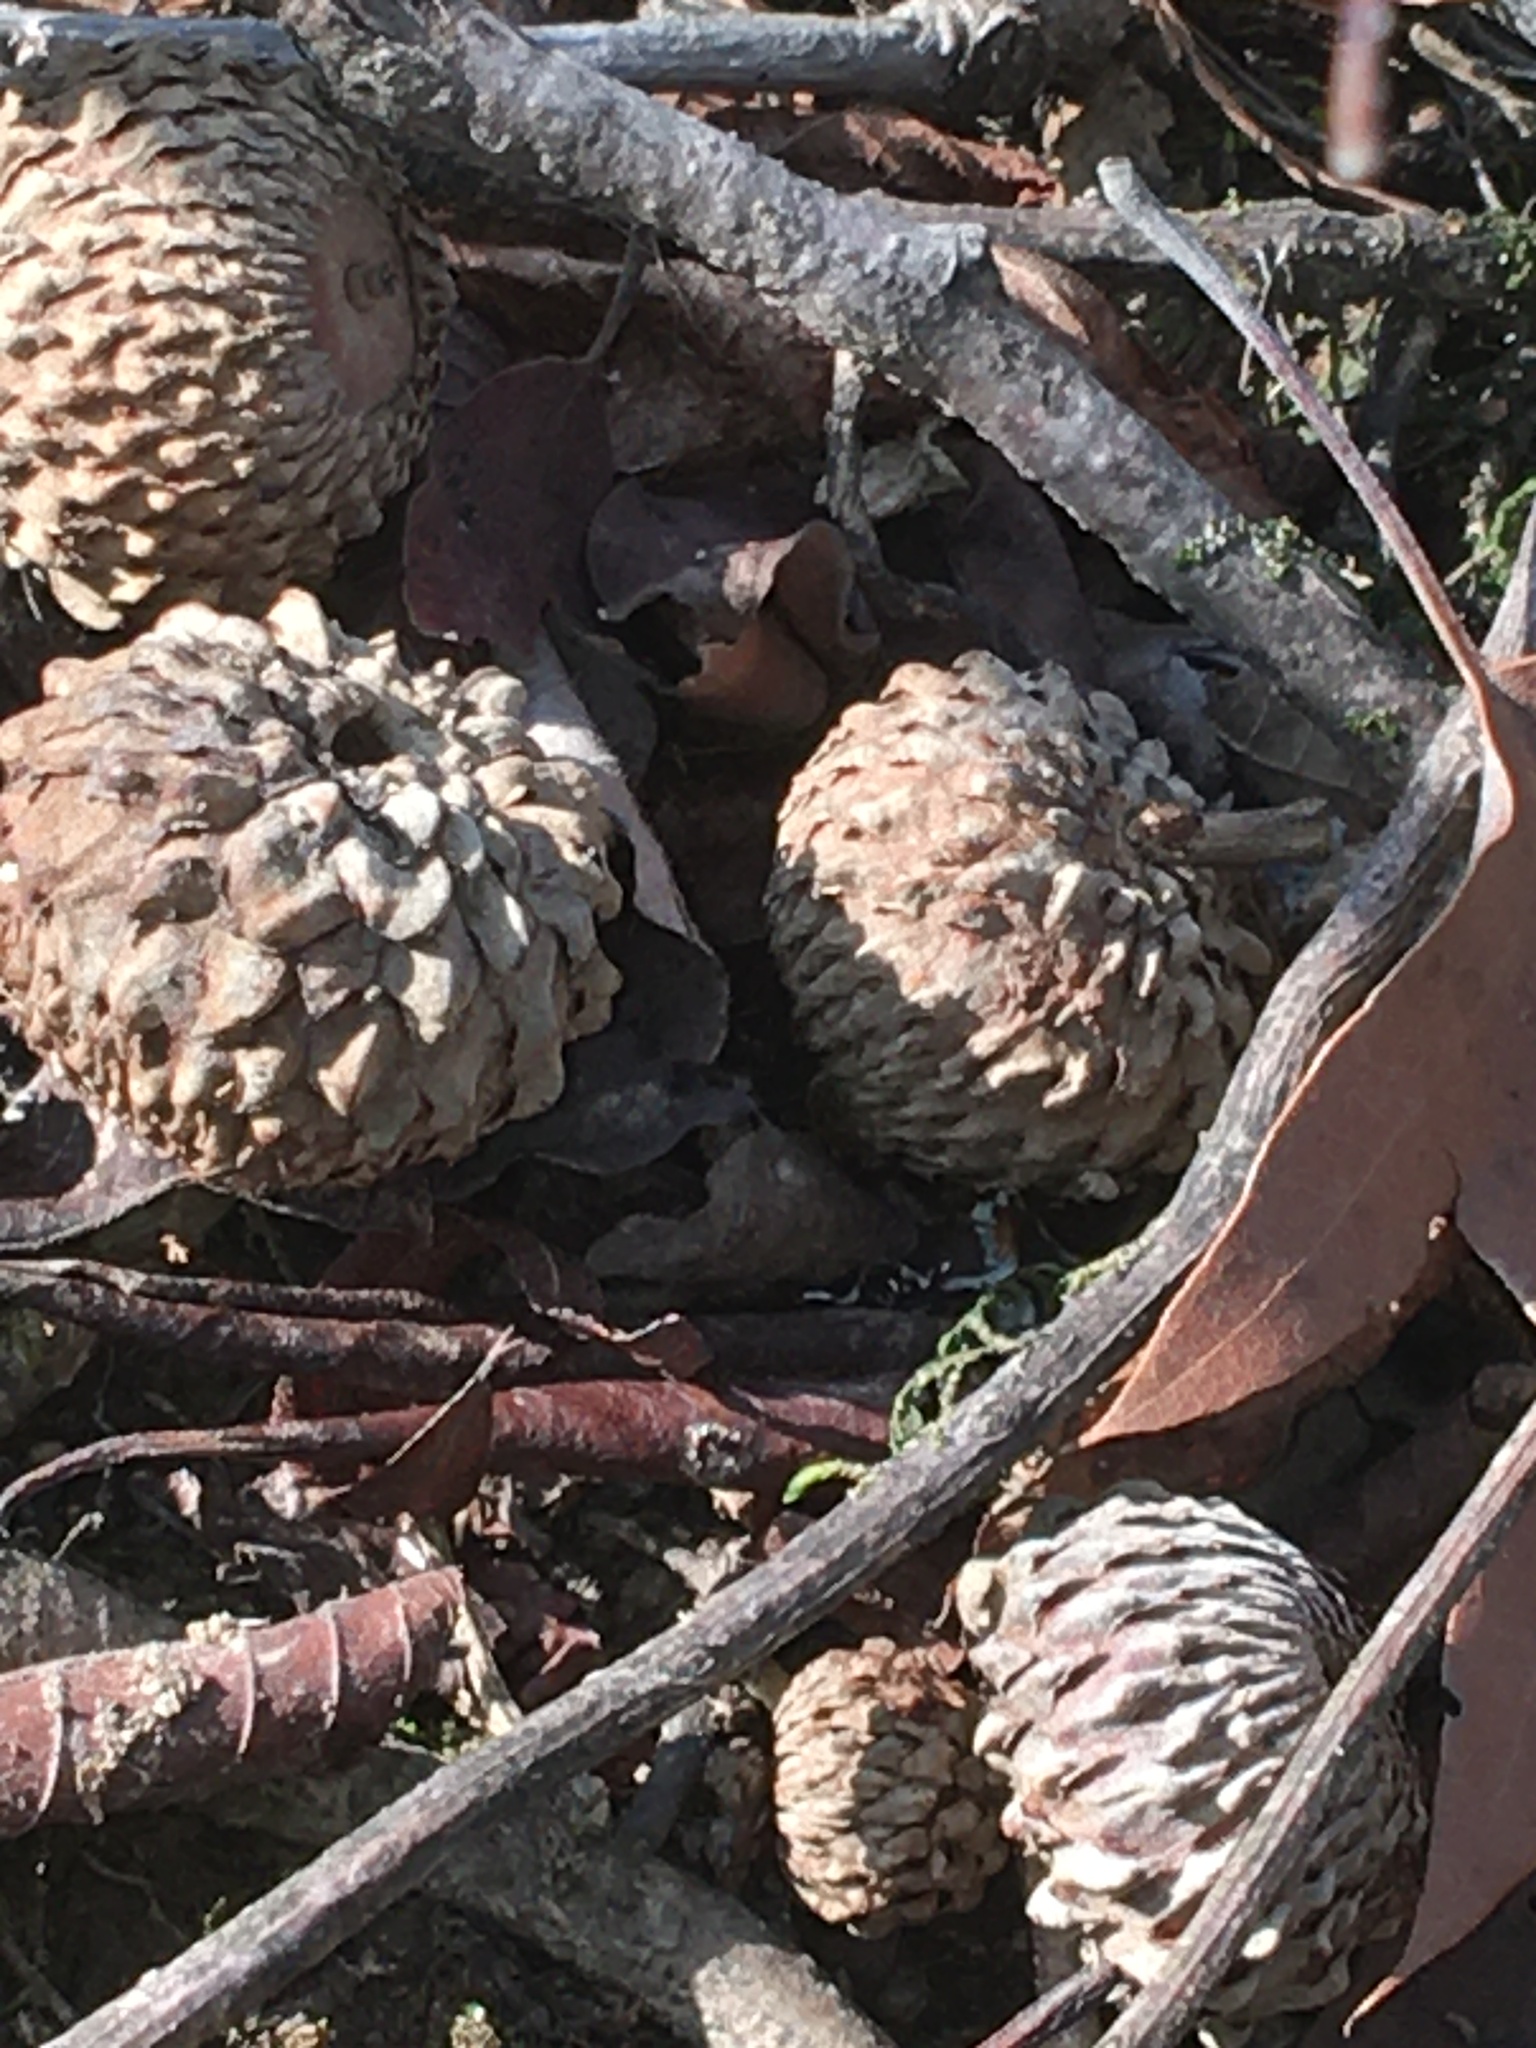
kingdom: Plantae
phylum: Tracheophyta
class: Magnoliopsida
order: Fagales
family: Fagaceae
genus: Quercus
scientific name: Quercus lyrata
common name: Overcup oak
